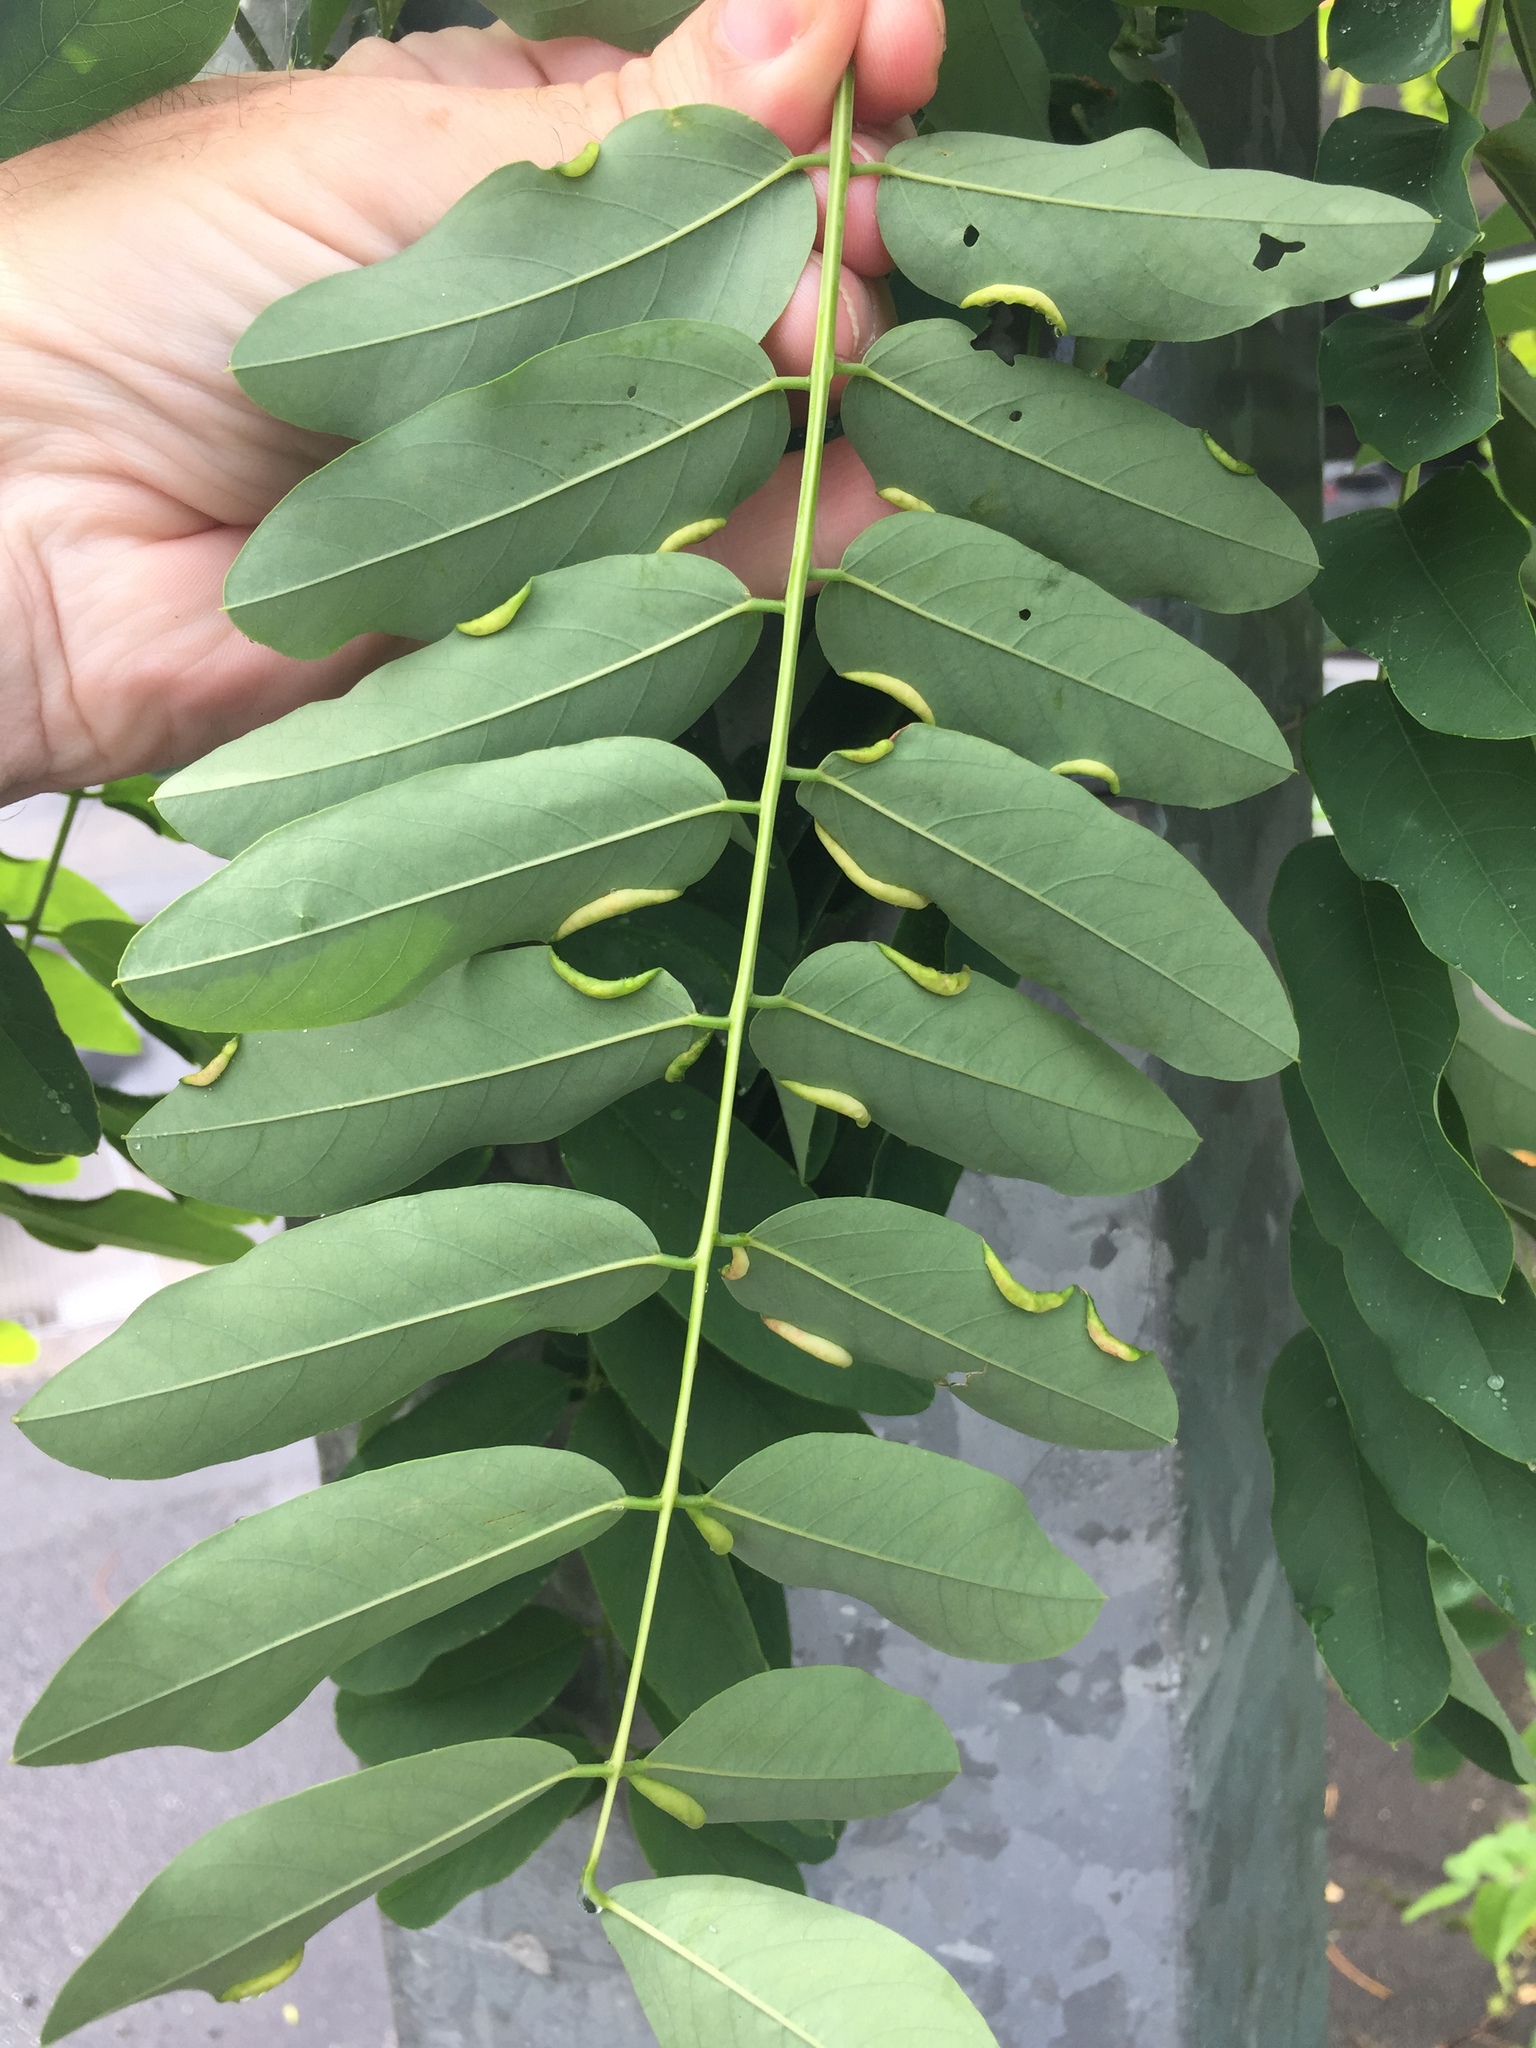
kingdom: Animalia
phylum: Arthropoda
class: Insecta
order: Diptera
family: Cecidomyiidae
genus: Obolodiplosis
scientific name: Obolodiplosis robiniae
